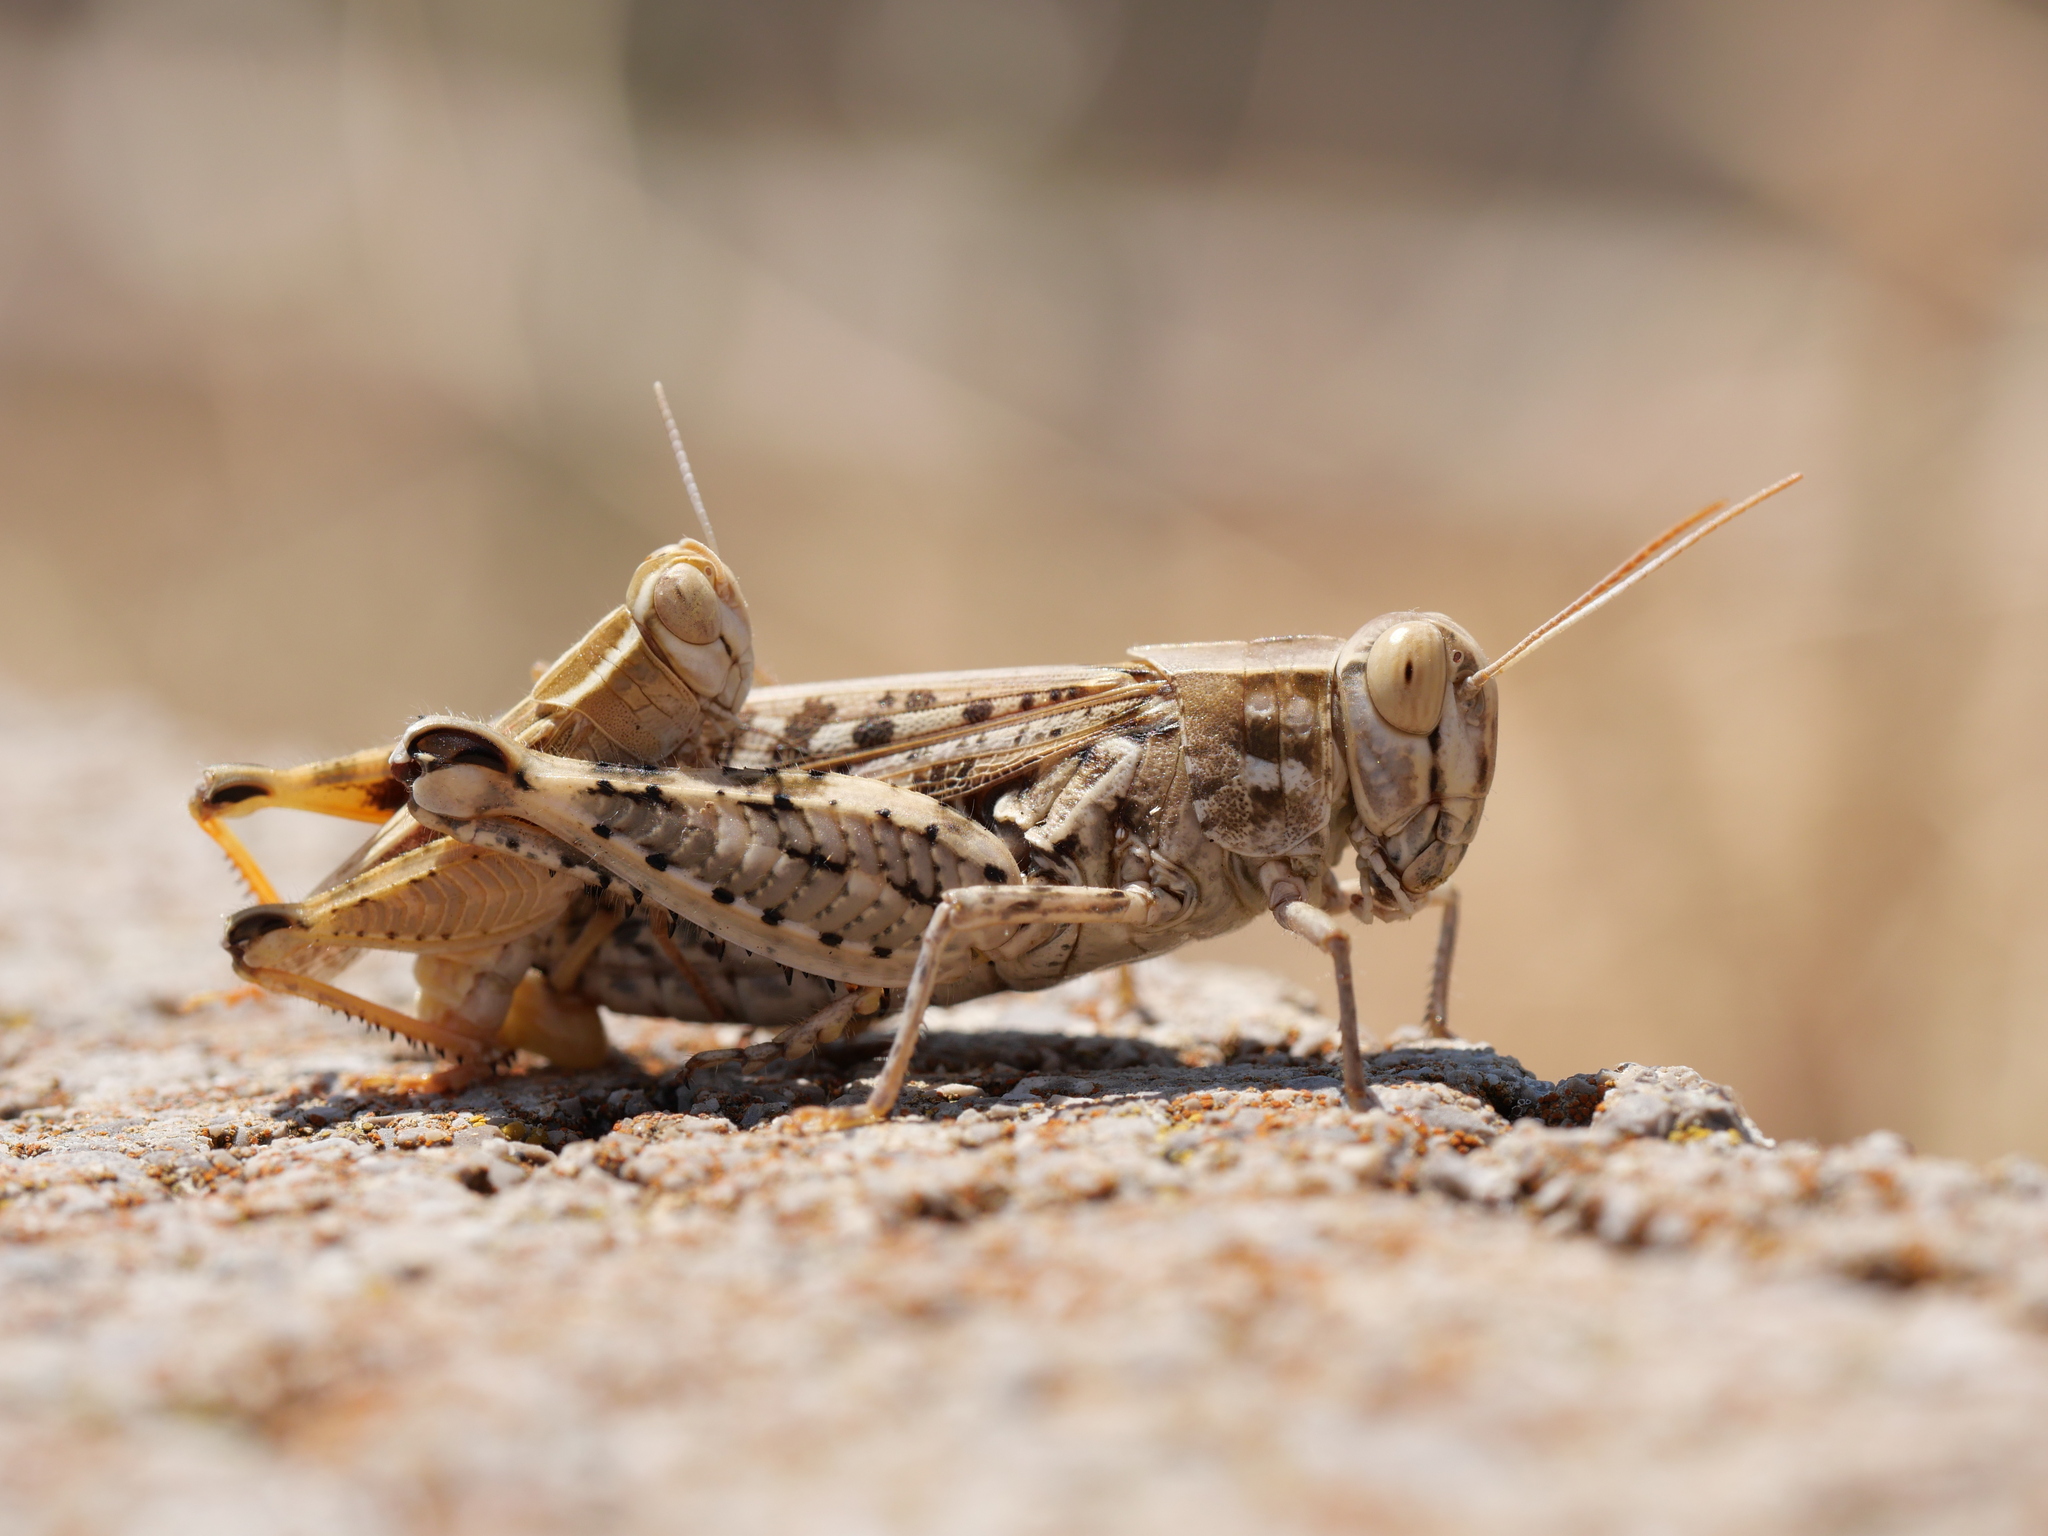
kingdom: Animalia
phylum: Arthropoda
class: Insecta
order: Orthoptera
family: Acrididae
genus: Calliptamus
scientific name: Calliptamus barbarus
